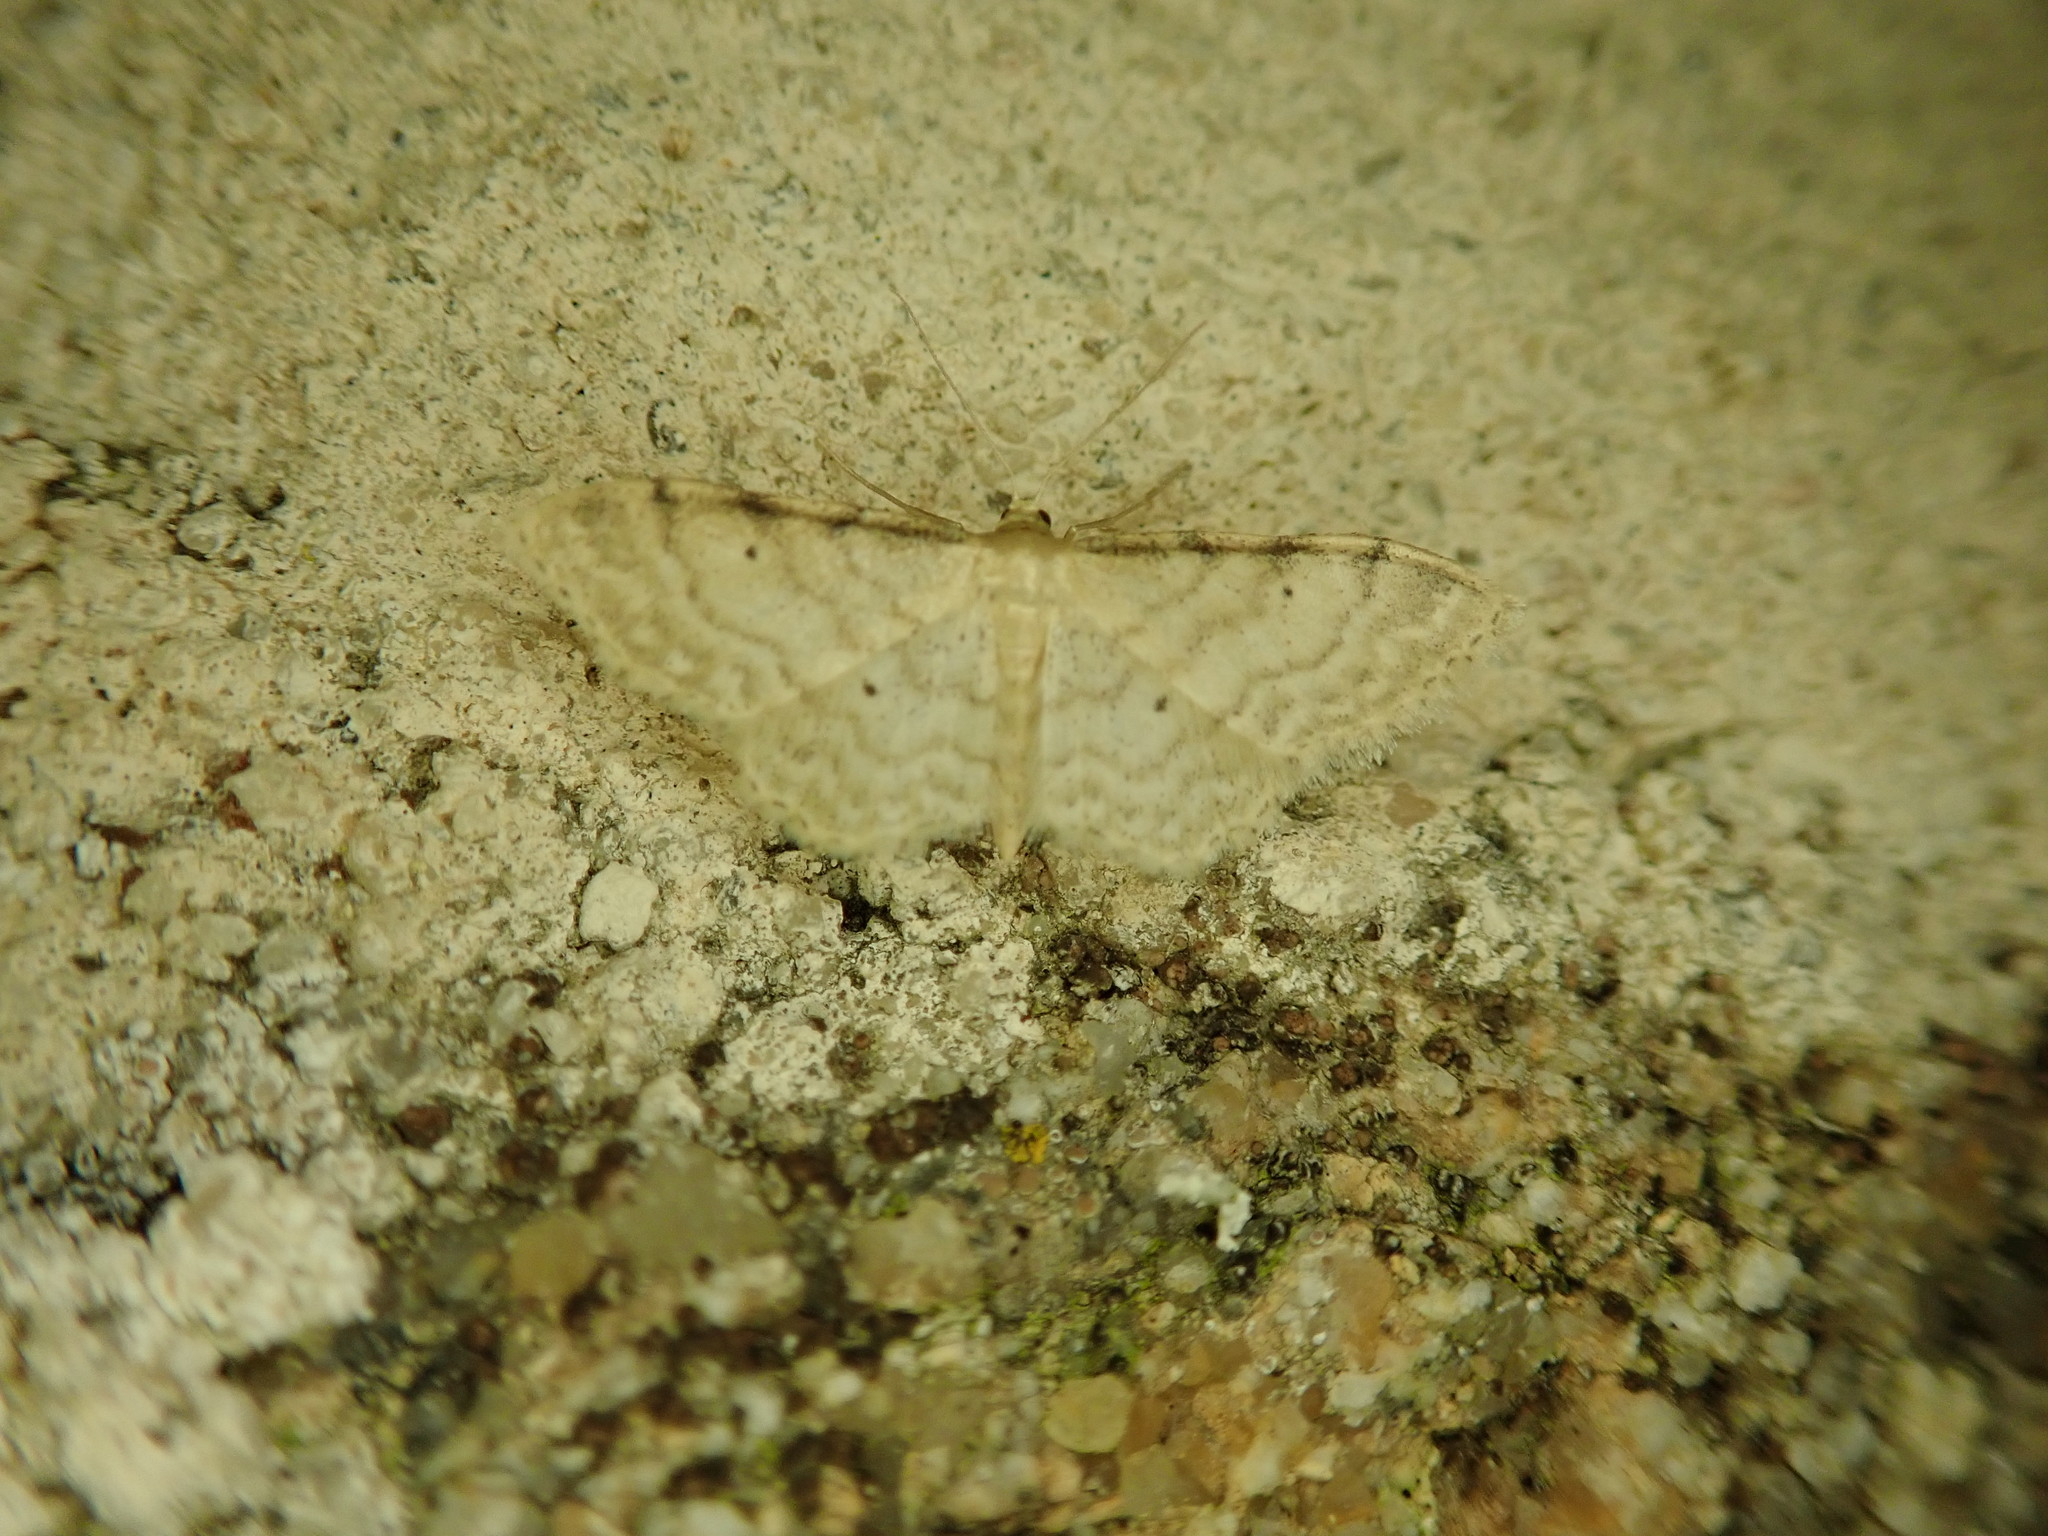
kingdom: Animalia
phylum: Arthropoda
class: Insecta
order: Lepidoptera
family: Geometridae
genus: Idaea
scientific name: Idaea fuscovenosa
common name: Dwarf cream wave
